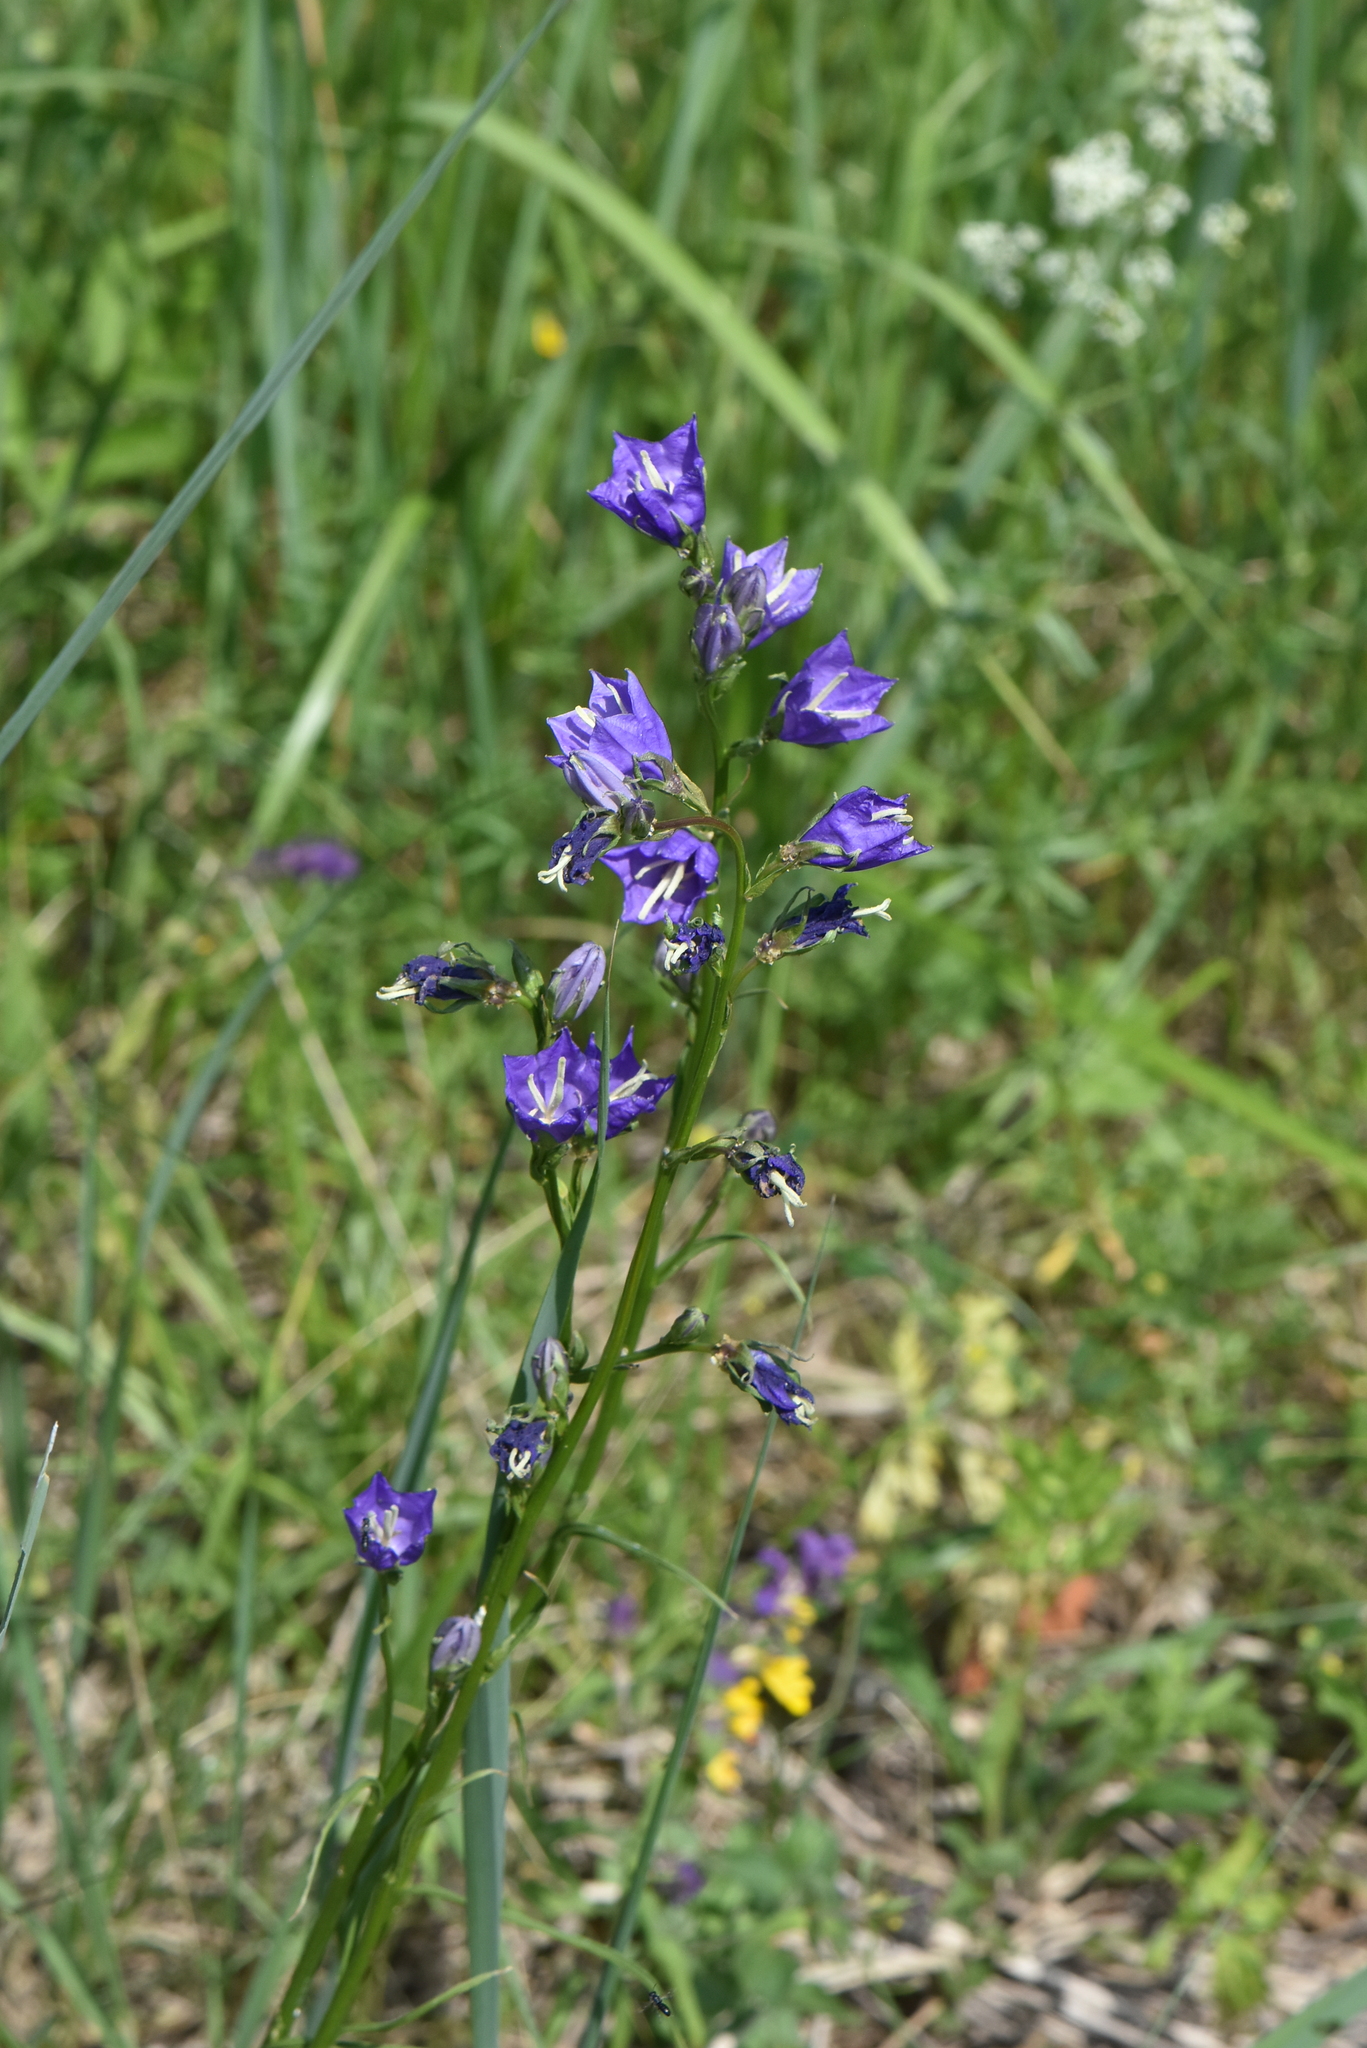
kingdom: Plantae
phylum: Tracheophyta
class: Magnoliopsida
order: Asterales
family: Campanulaceae
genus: Campanula
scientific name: Campanula persicifolia
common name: Peach-leaved bellflower
